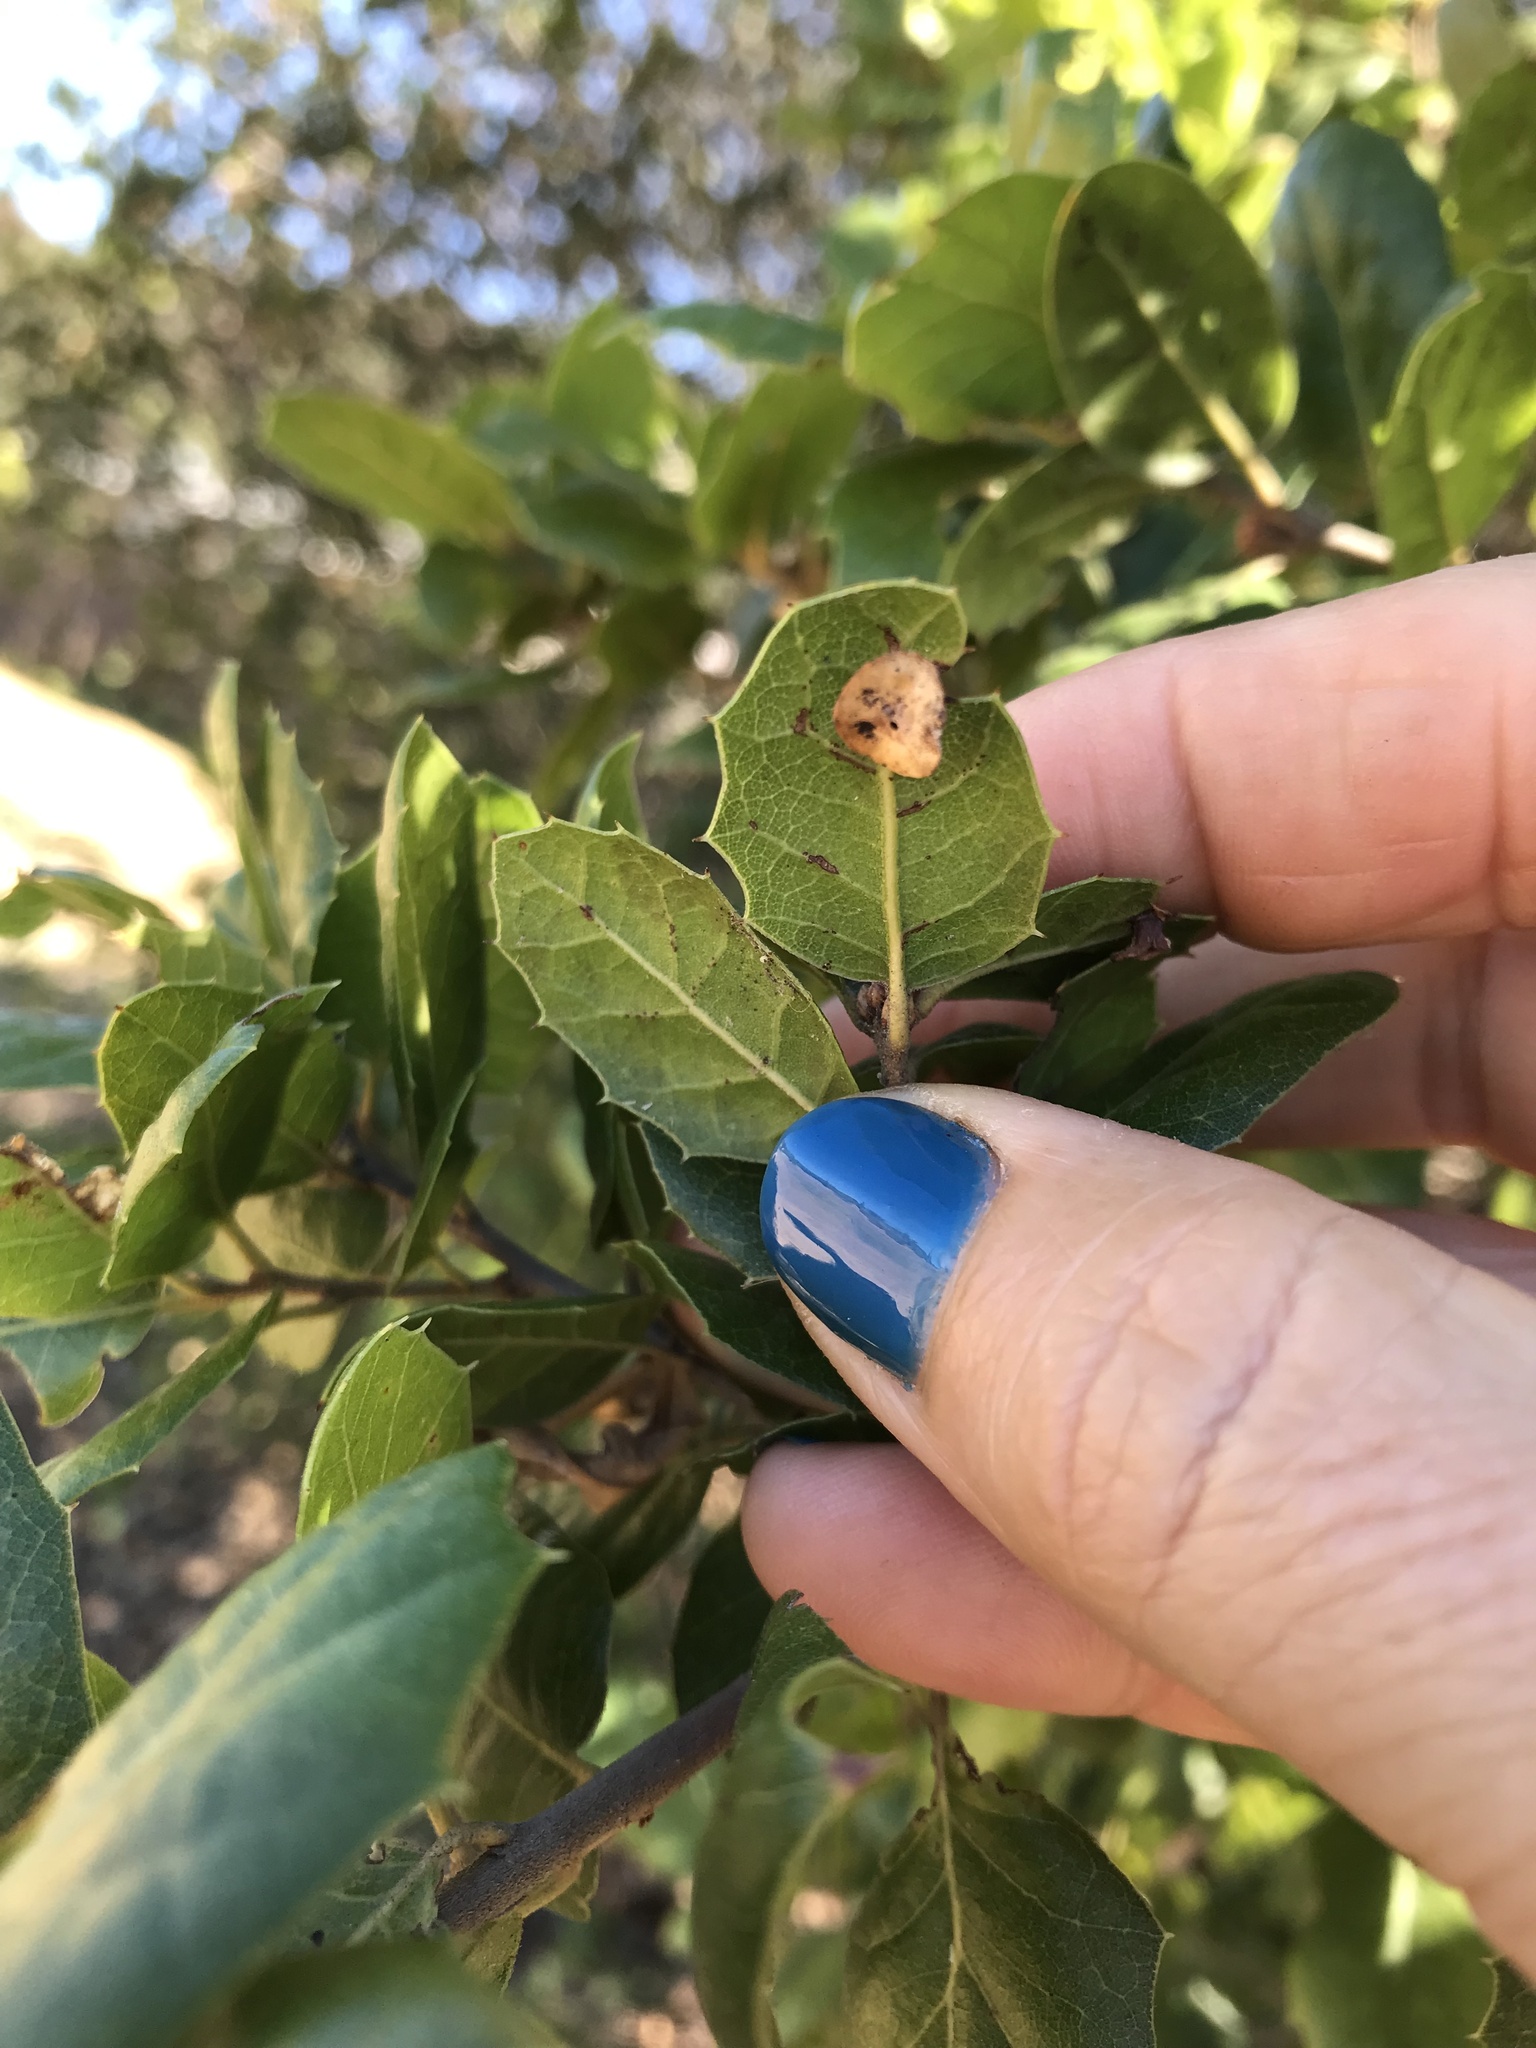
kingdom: Animalia
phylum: Arthropoda
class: Insecta
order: Hymenoptera
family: Cynipidae
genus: Amphibolips
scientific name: Amphibolips quercuspomiformis
